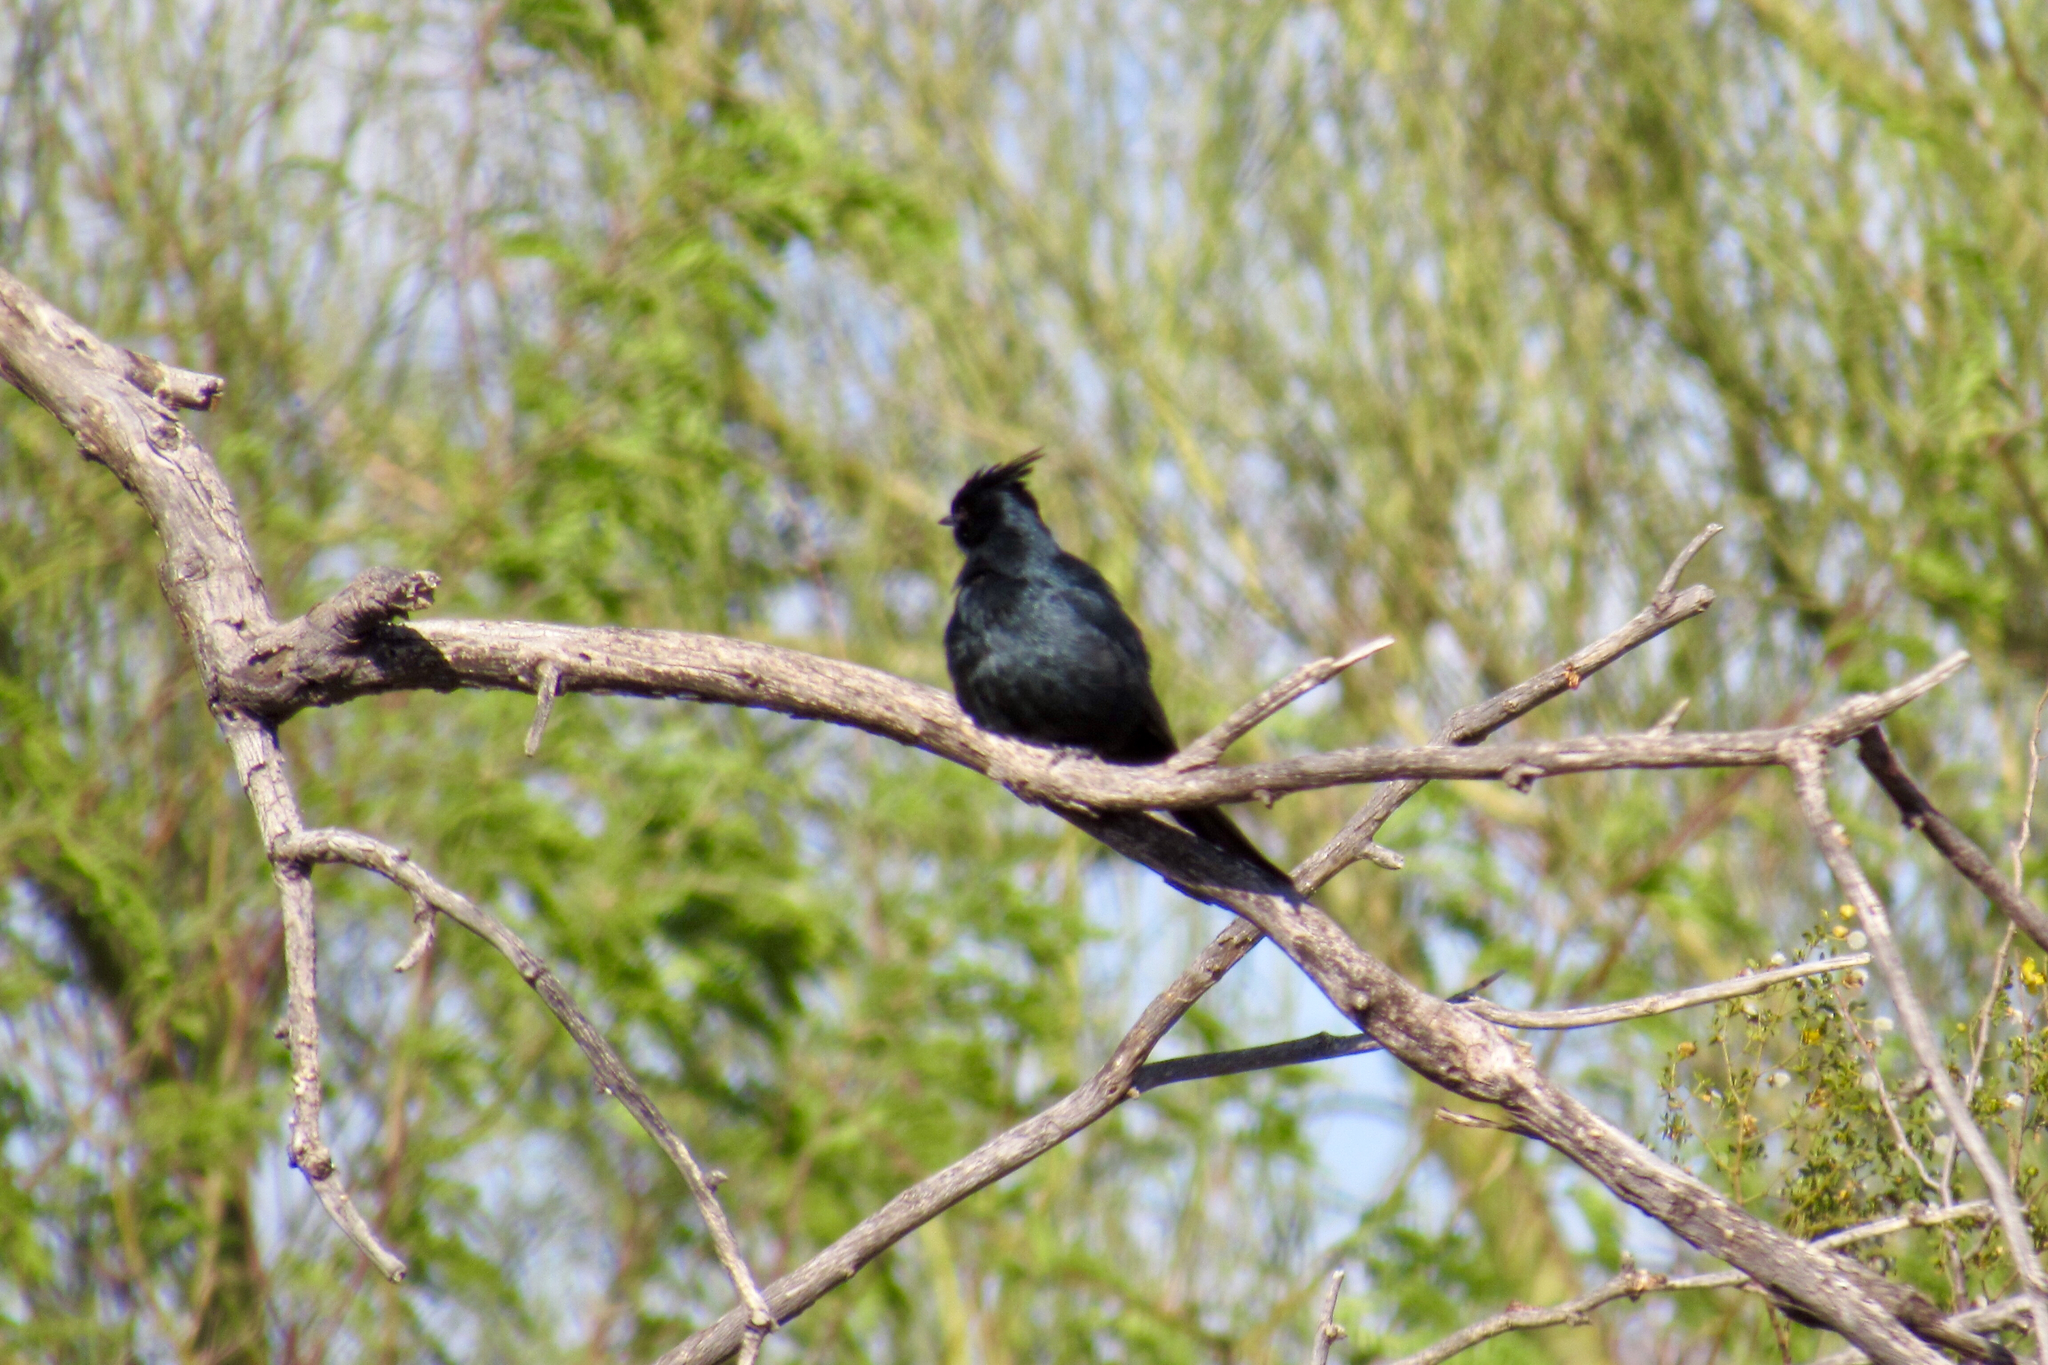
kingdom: Animalia
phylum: Chordata
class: Aves
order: Passeriformes
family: Ptilogonatidae
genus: Phainopepla
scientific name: Phainopepla nitens
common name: Phainopepla
